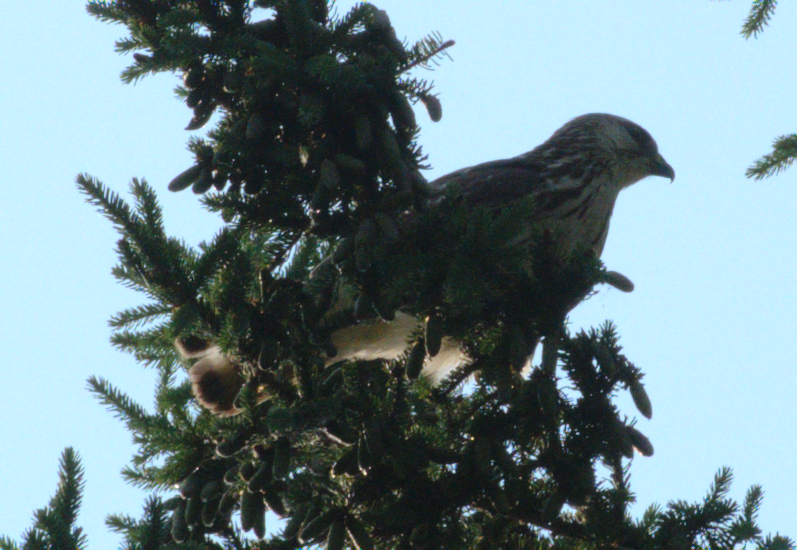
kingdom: Animalia
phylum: Chordata
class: Aves
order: Accipitriformes
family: Accipitridae
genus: Buteo
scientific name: Buteo platypterus
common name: Broad-winged hawk
